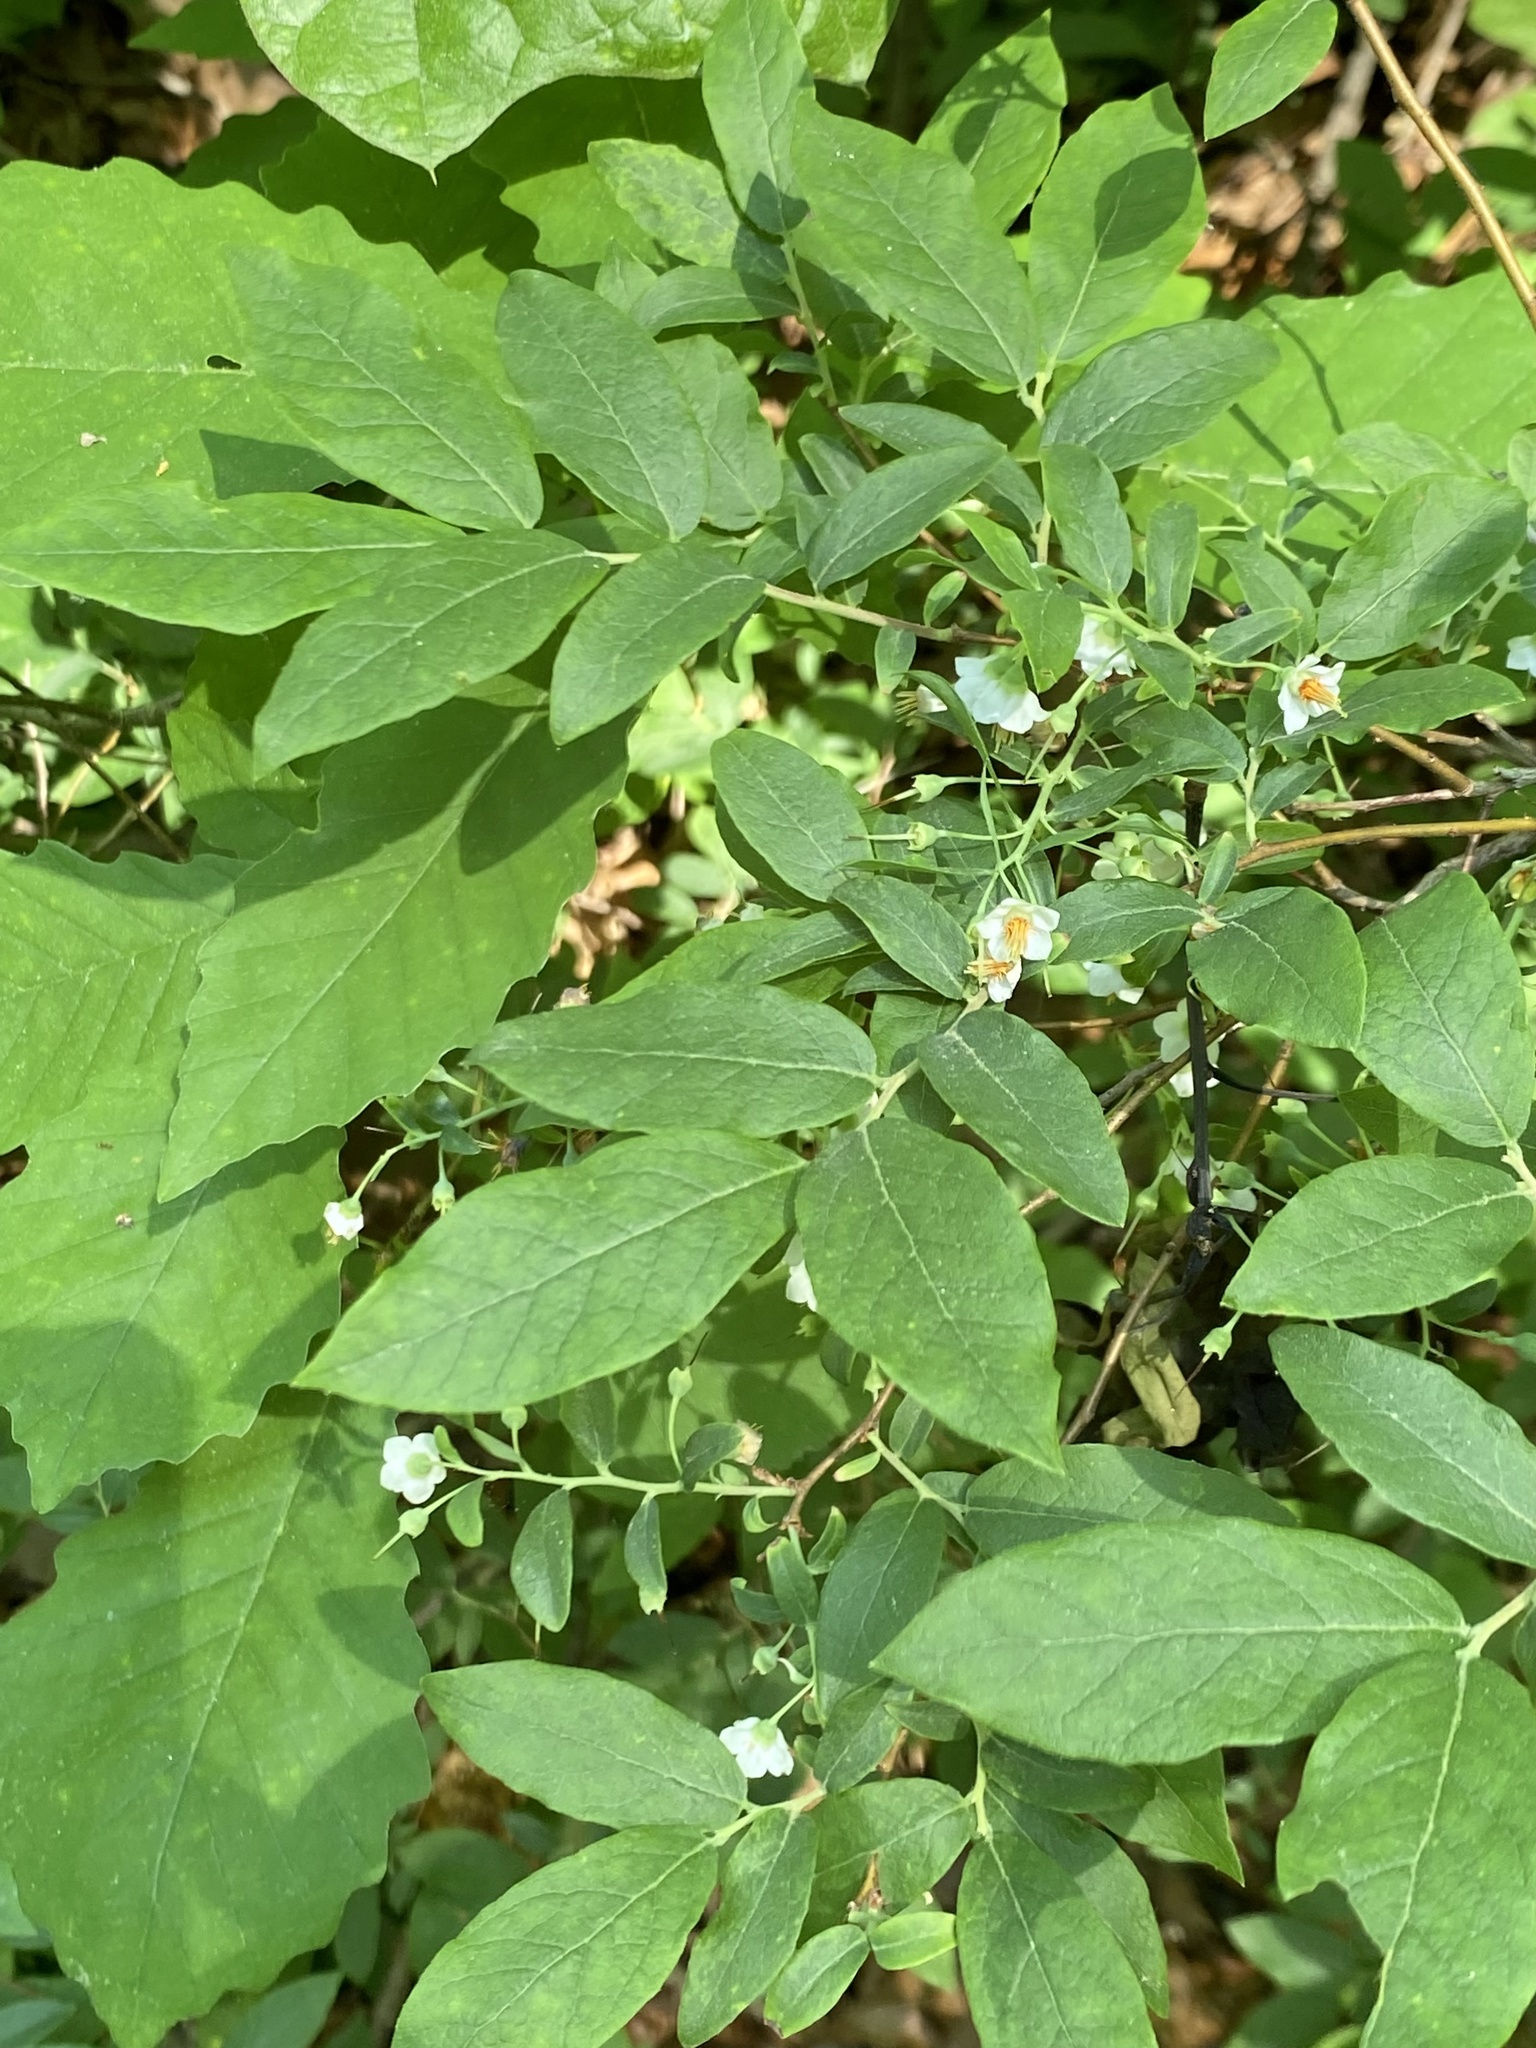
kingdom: Plantae
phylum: Tracheophyta
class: Magnoliopsida
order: Ericales
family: Ericaceae
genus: Vaccinium
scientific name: Vaccinium stamineum
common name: Deerberry
